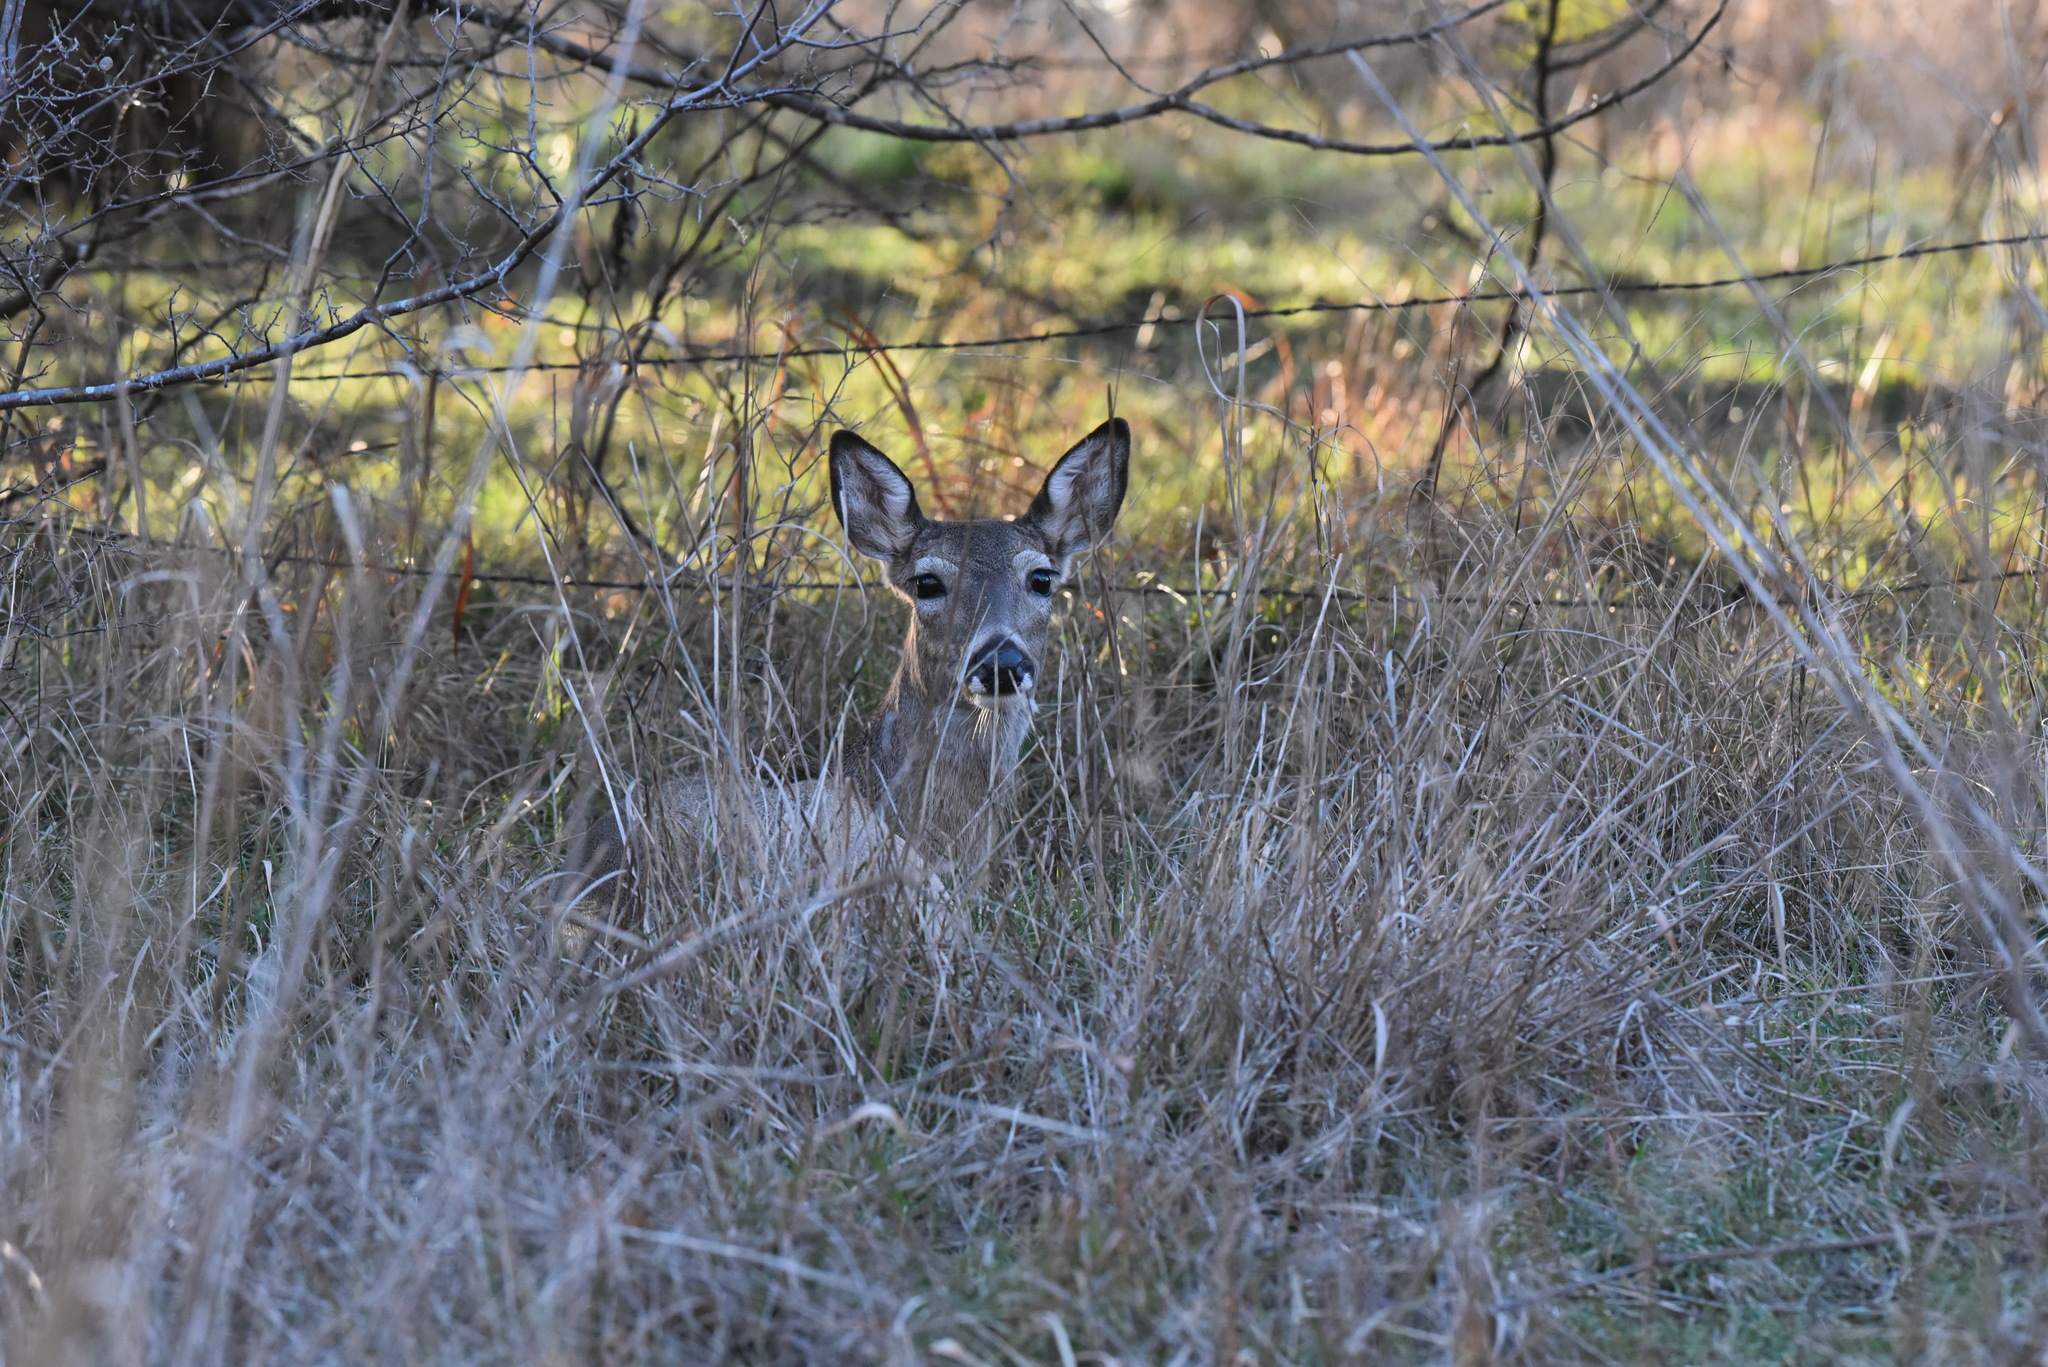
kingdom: Animalia
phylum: Chordata
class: Mammalia
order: Artiodactyla
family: Cervidae
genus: Odocoileus
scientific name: Odocoileus virginianus
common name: White-tailed deer
